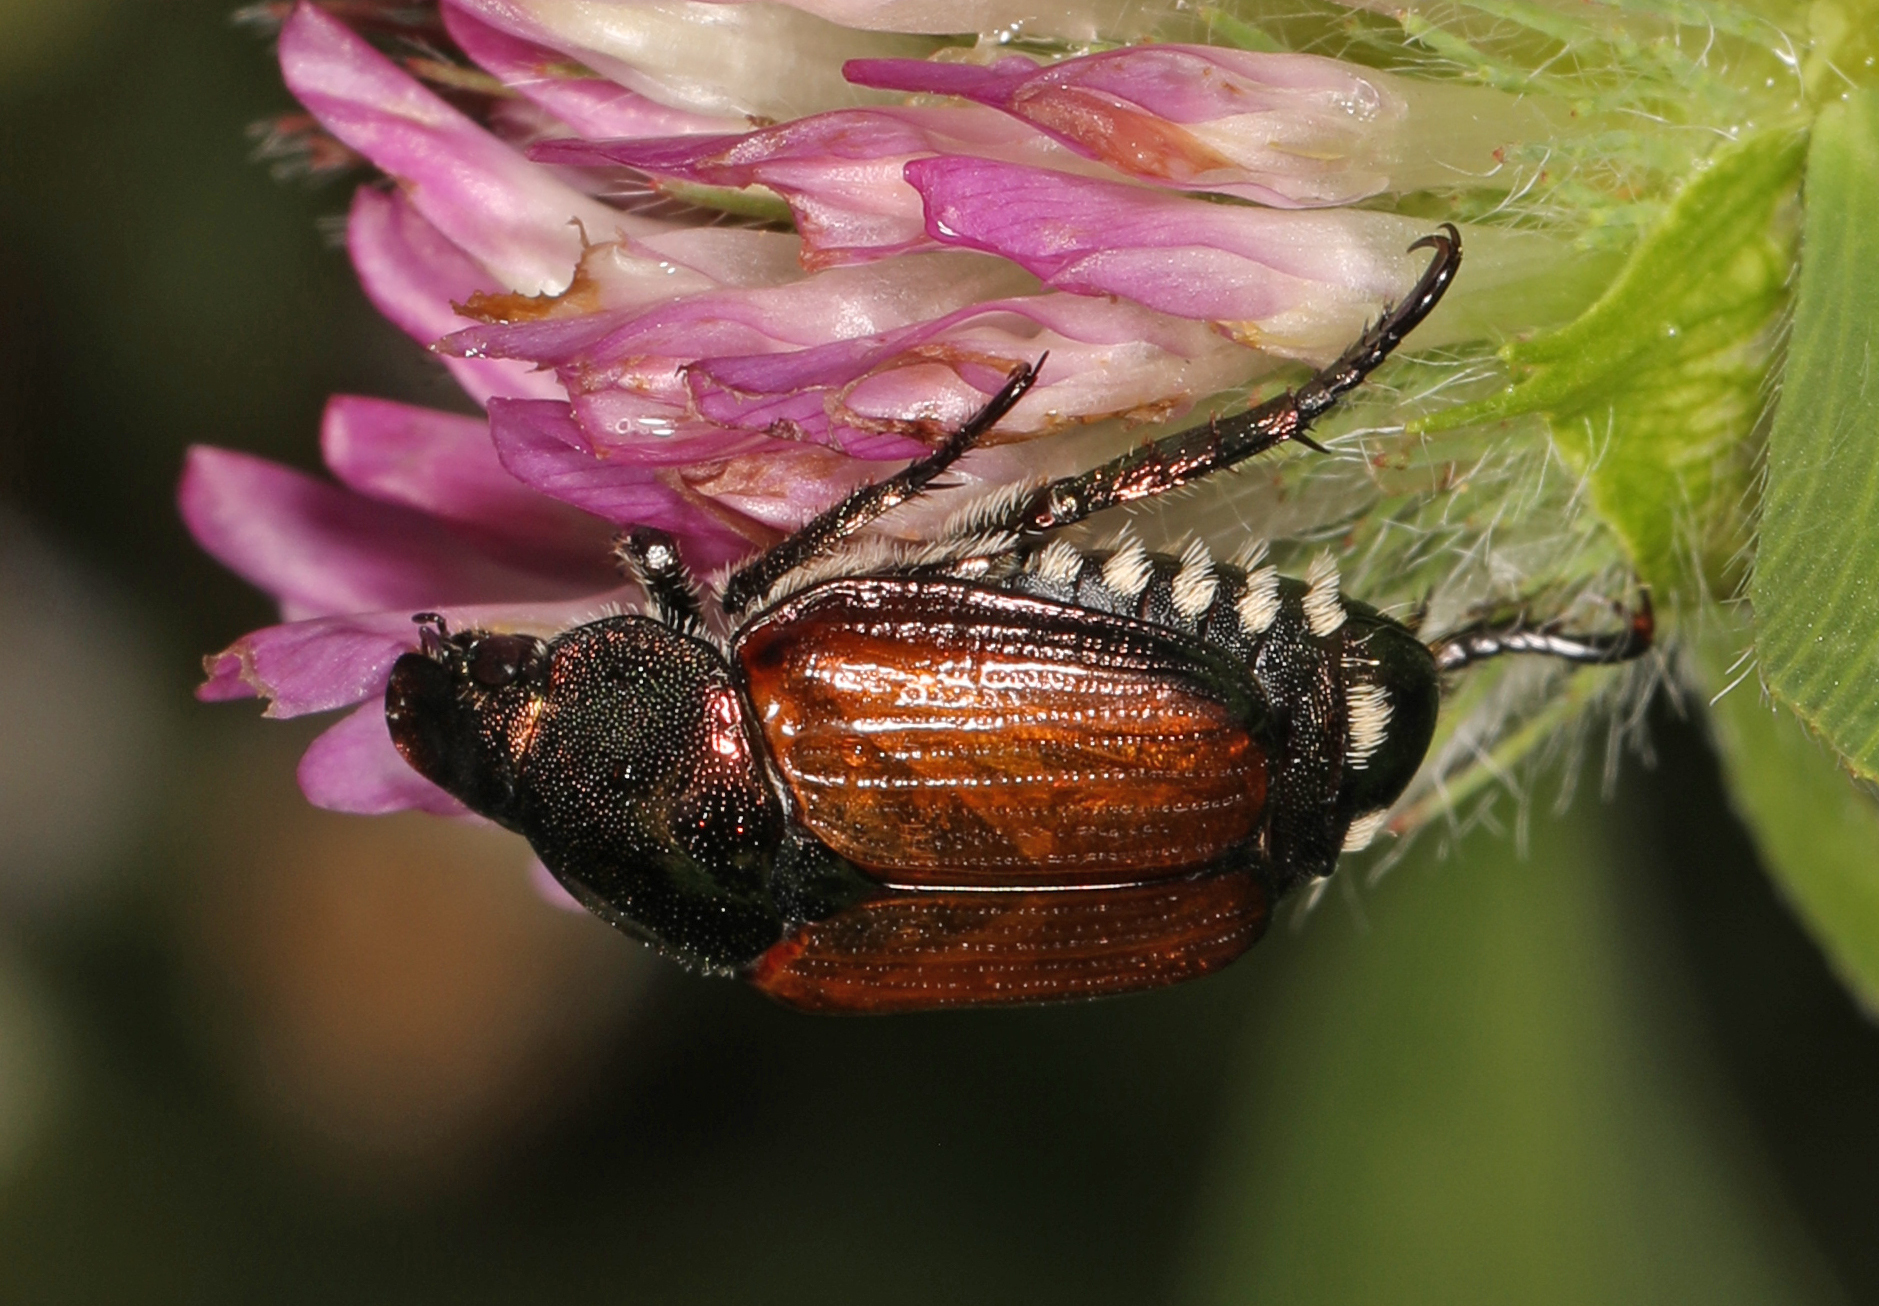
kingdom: Animalia
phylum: Arthropoda
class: Insecta
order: Coleoptera
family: Scarabaeidae
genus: Popillia
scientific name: Popillia japonica
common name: Japanese beetle
